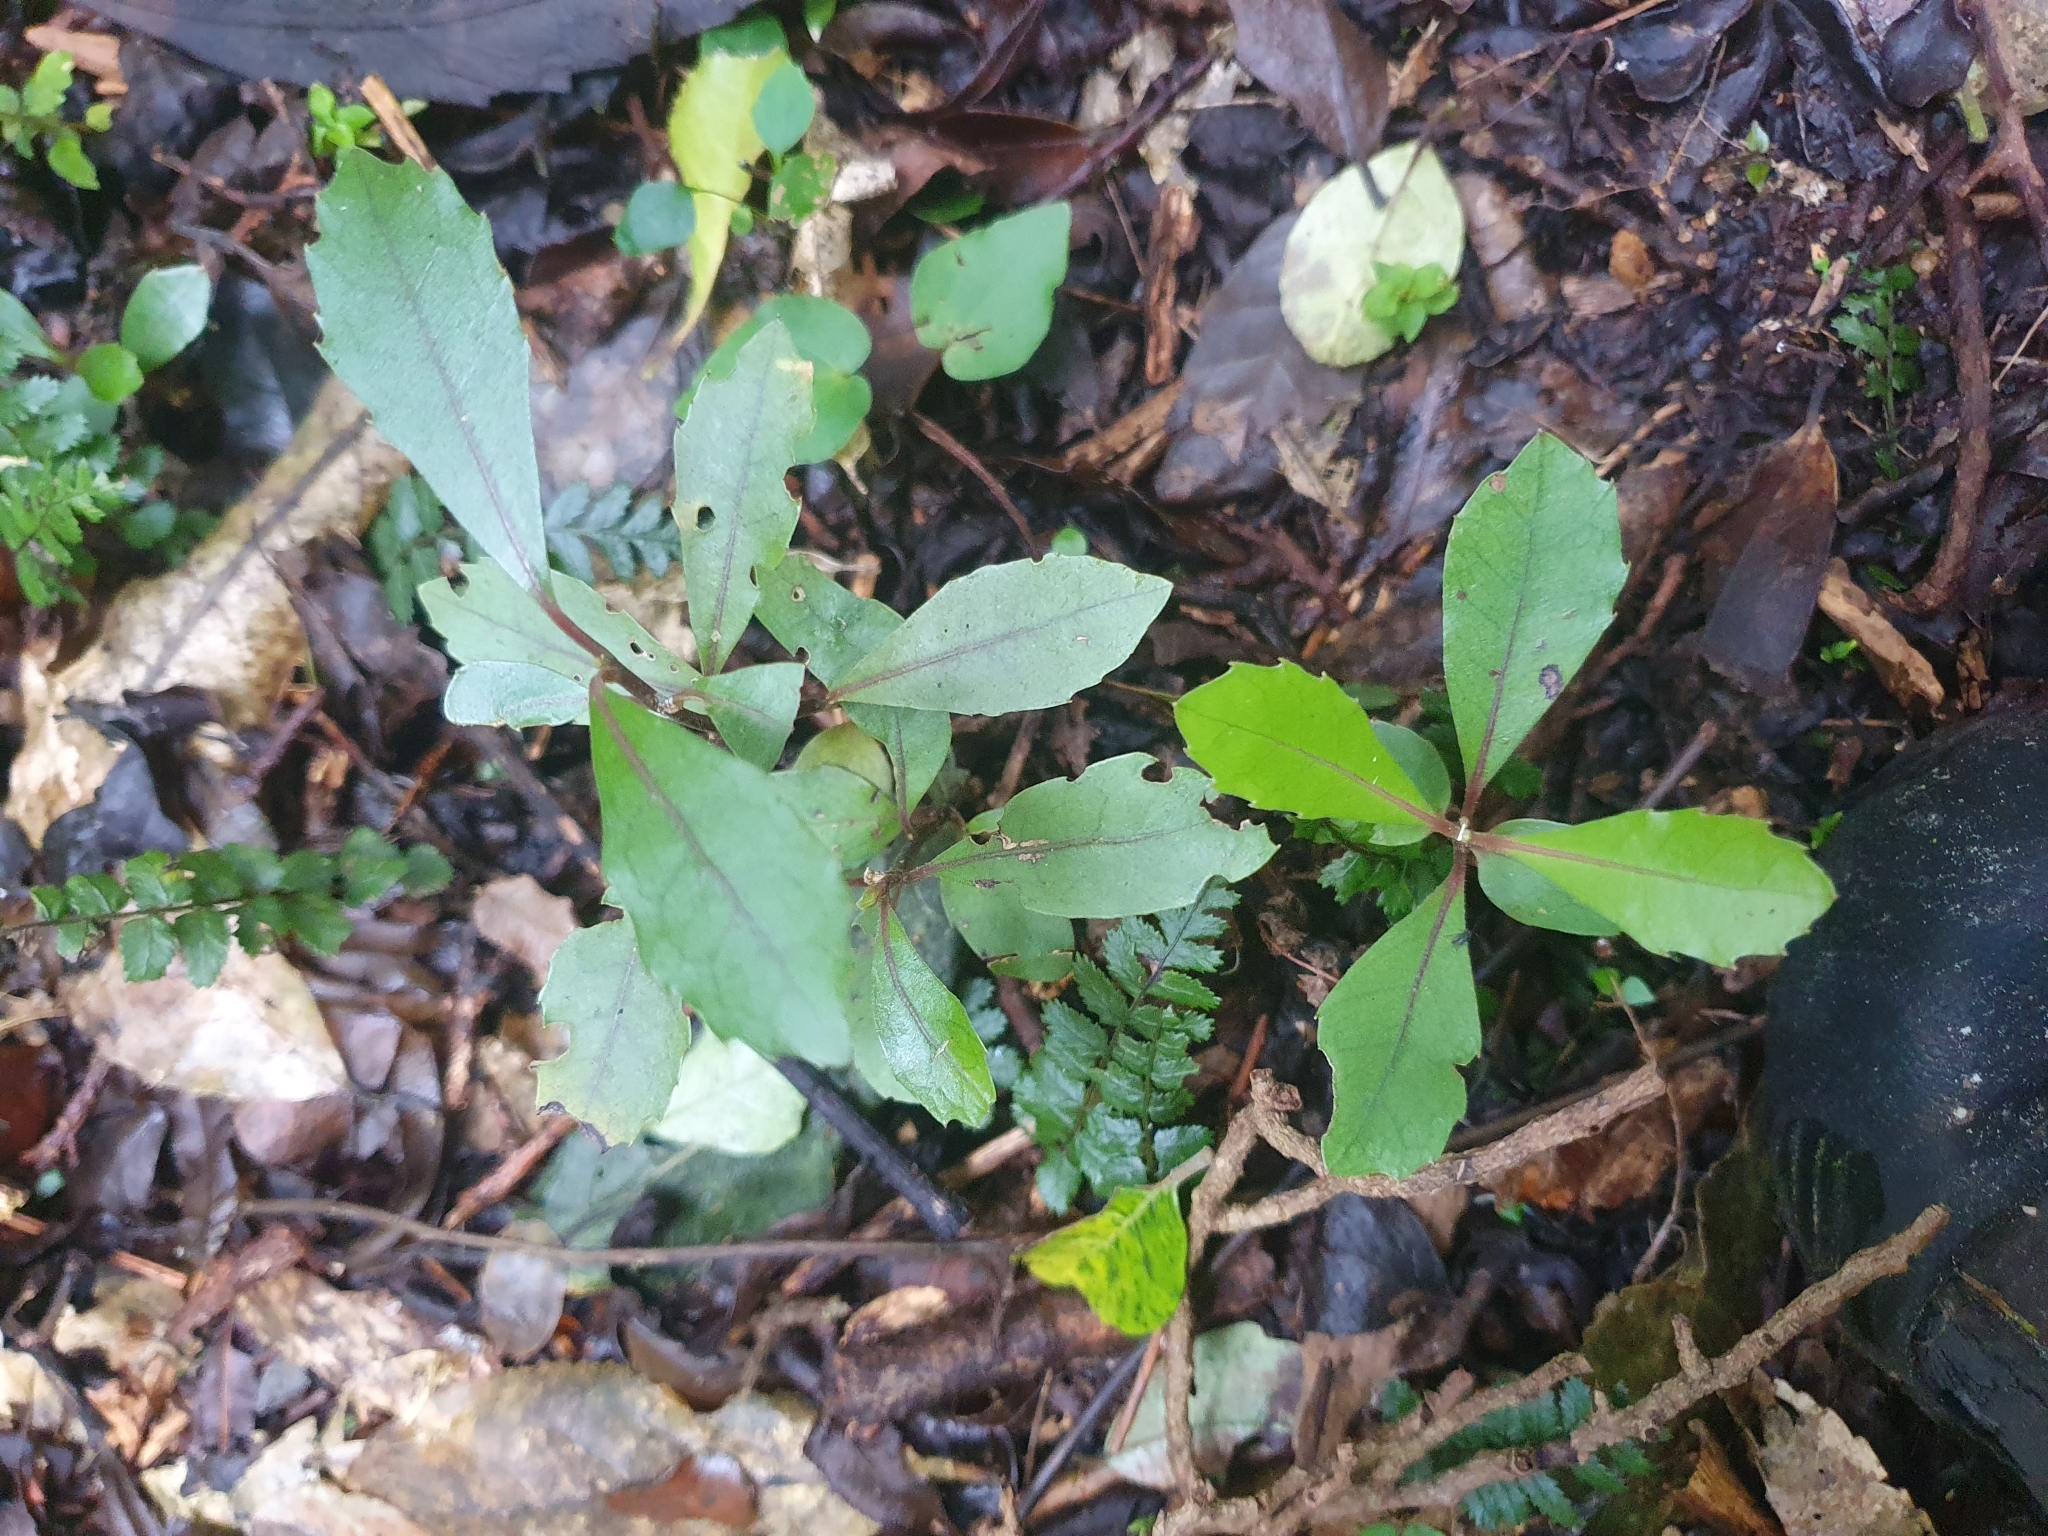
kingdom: Plantae
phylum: Tracheophyta
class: Magnoliopsida
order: Laurales
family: Monimiaceae
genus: Hedycarya
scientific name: Hedycarya arborea
